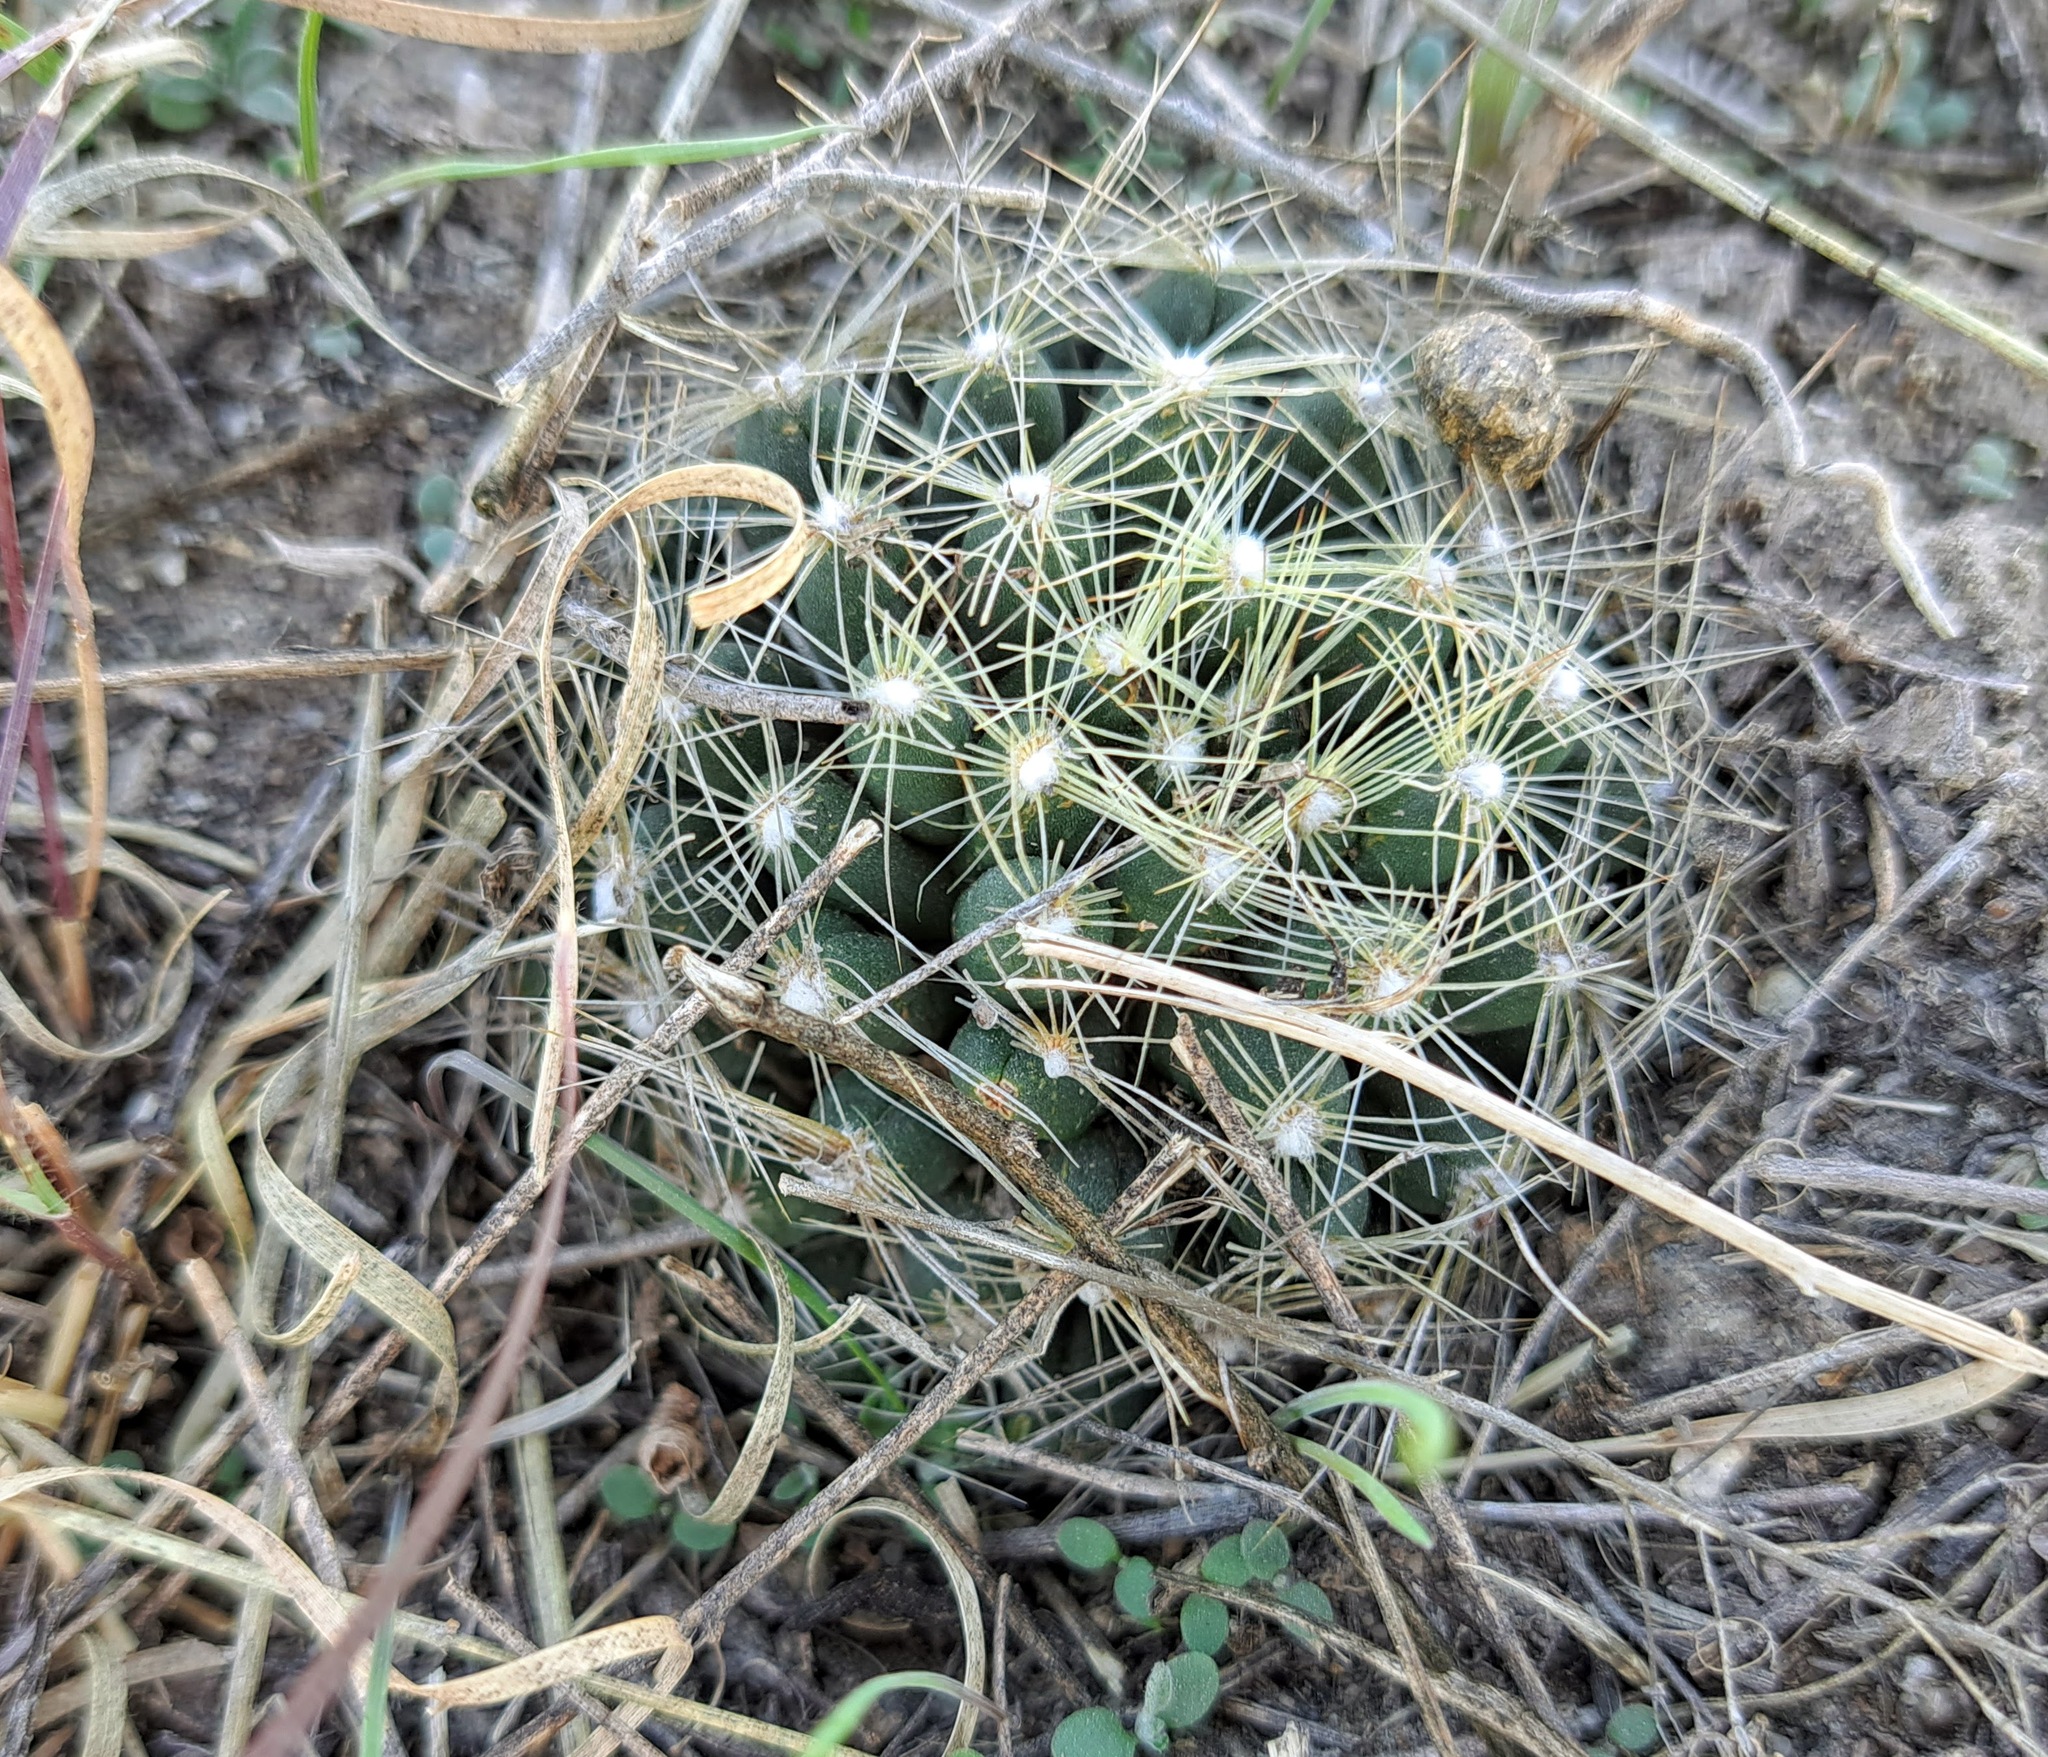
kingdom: Plantae
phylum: Tracheophyta
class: Magnoliopsida
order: Caryophyllales
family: Cactaceae
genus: Pelecyphora
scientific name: Pelecyphora missouriensis
